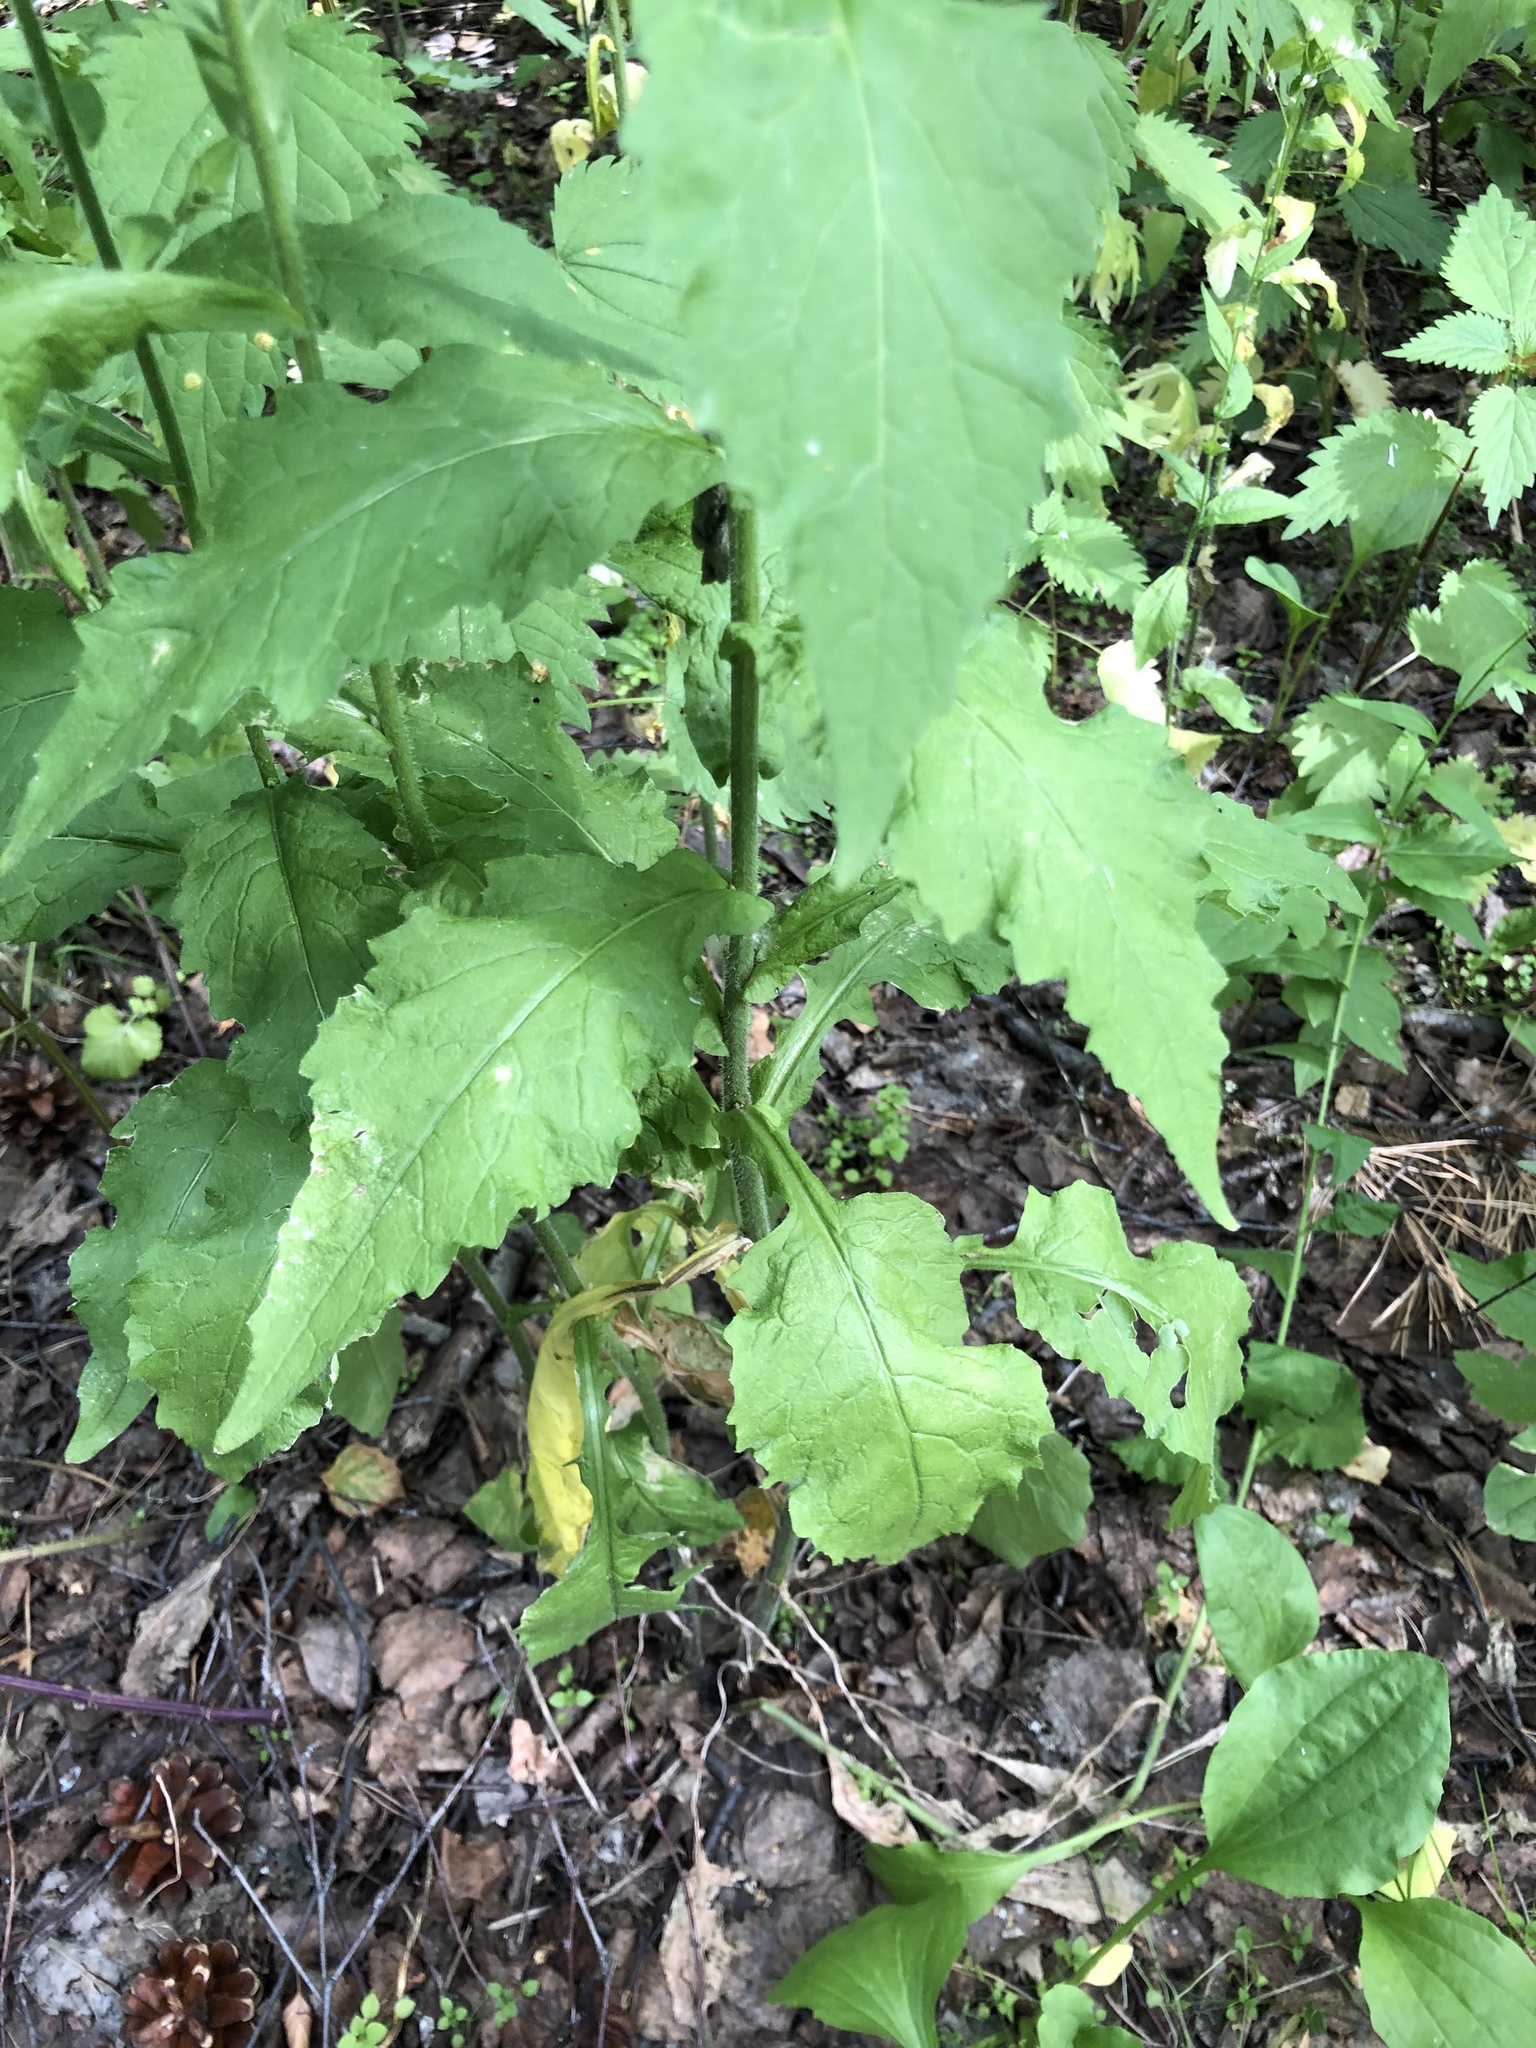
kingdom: Plantae
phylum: Tracheophyta
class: Magnoliopsida
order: Brassicales
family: Brassicaceae
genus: Catolobus
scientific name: Catolobus pendulus
